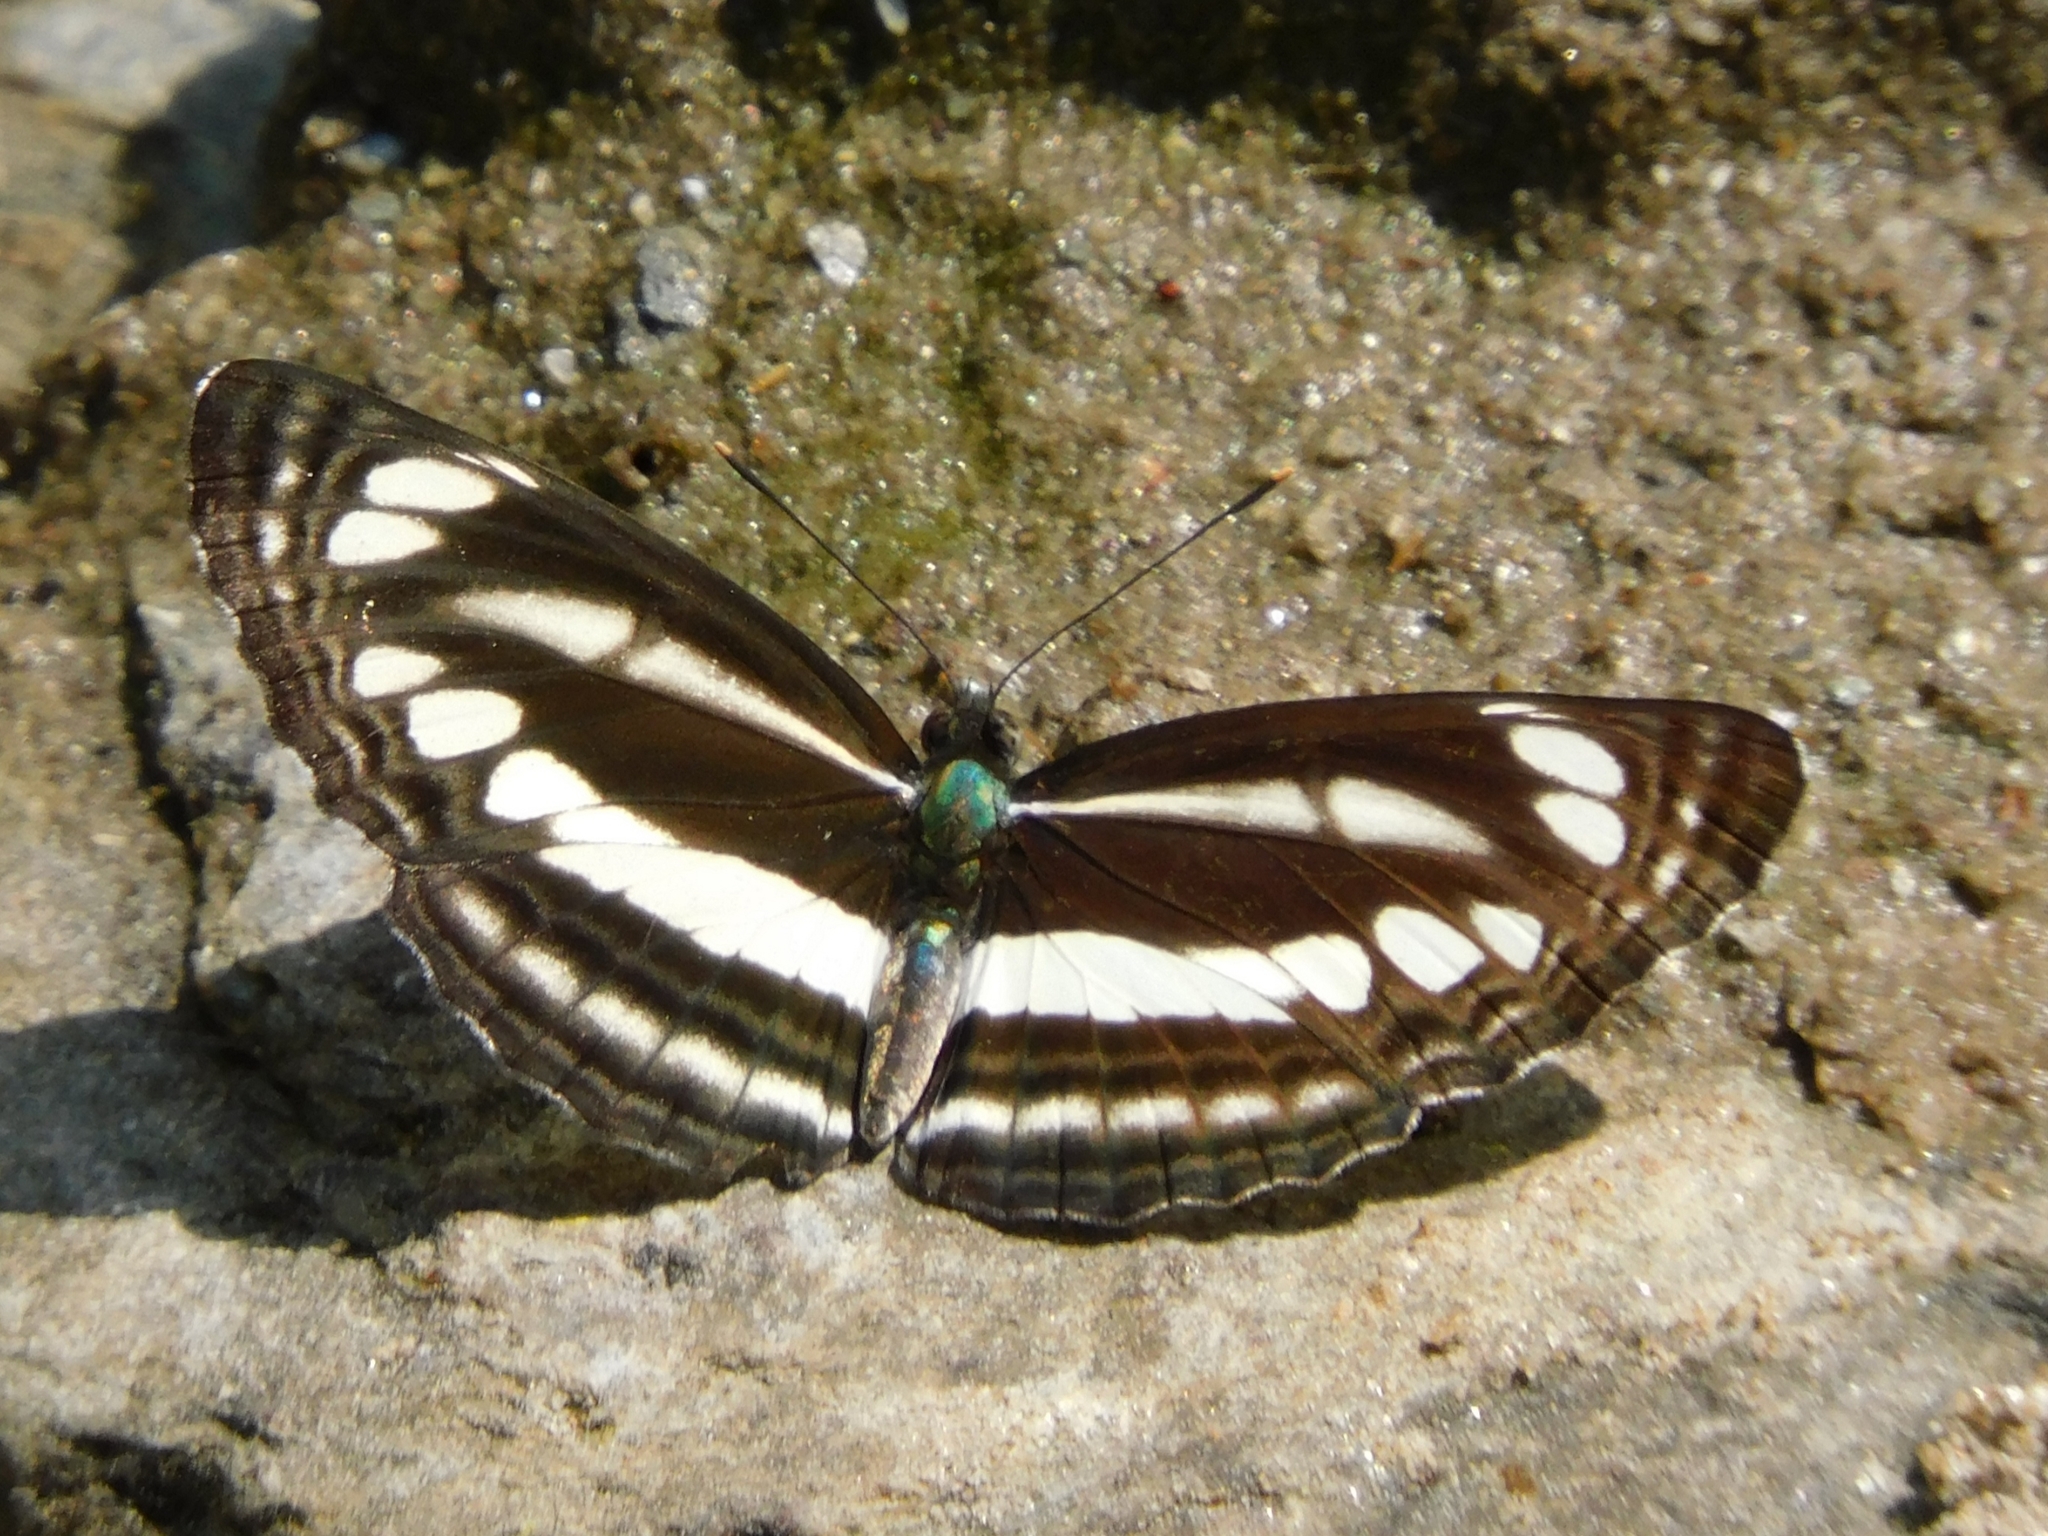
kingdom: Animalia
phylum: Arthropoda
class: Insecta
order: Lepidoptera
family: Nymphalidae
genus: Neptis
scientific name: Neptis clinia
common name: Southern sullied sailer
